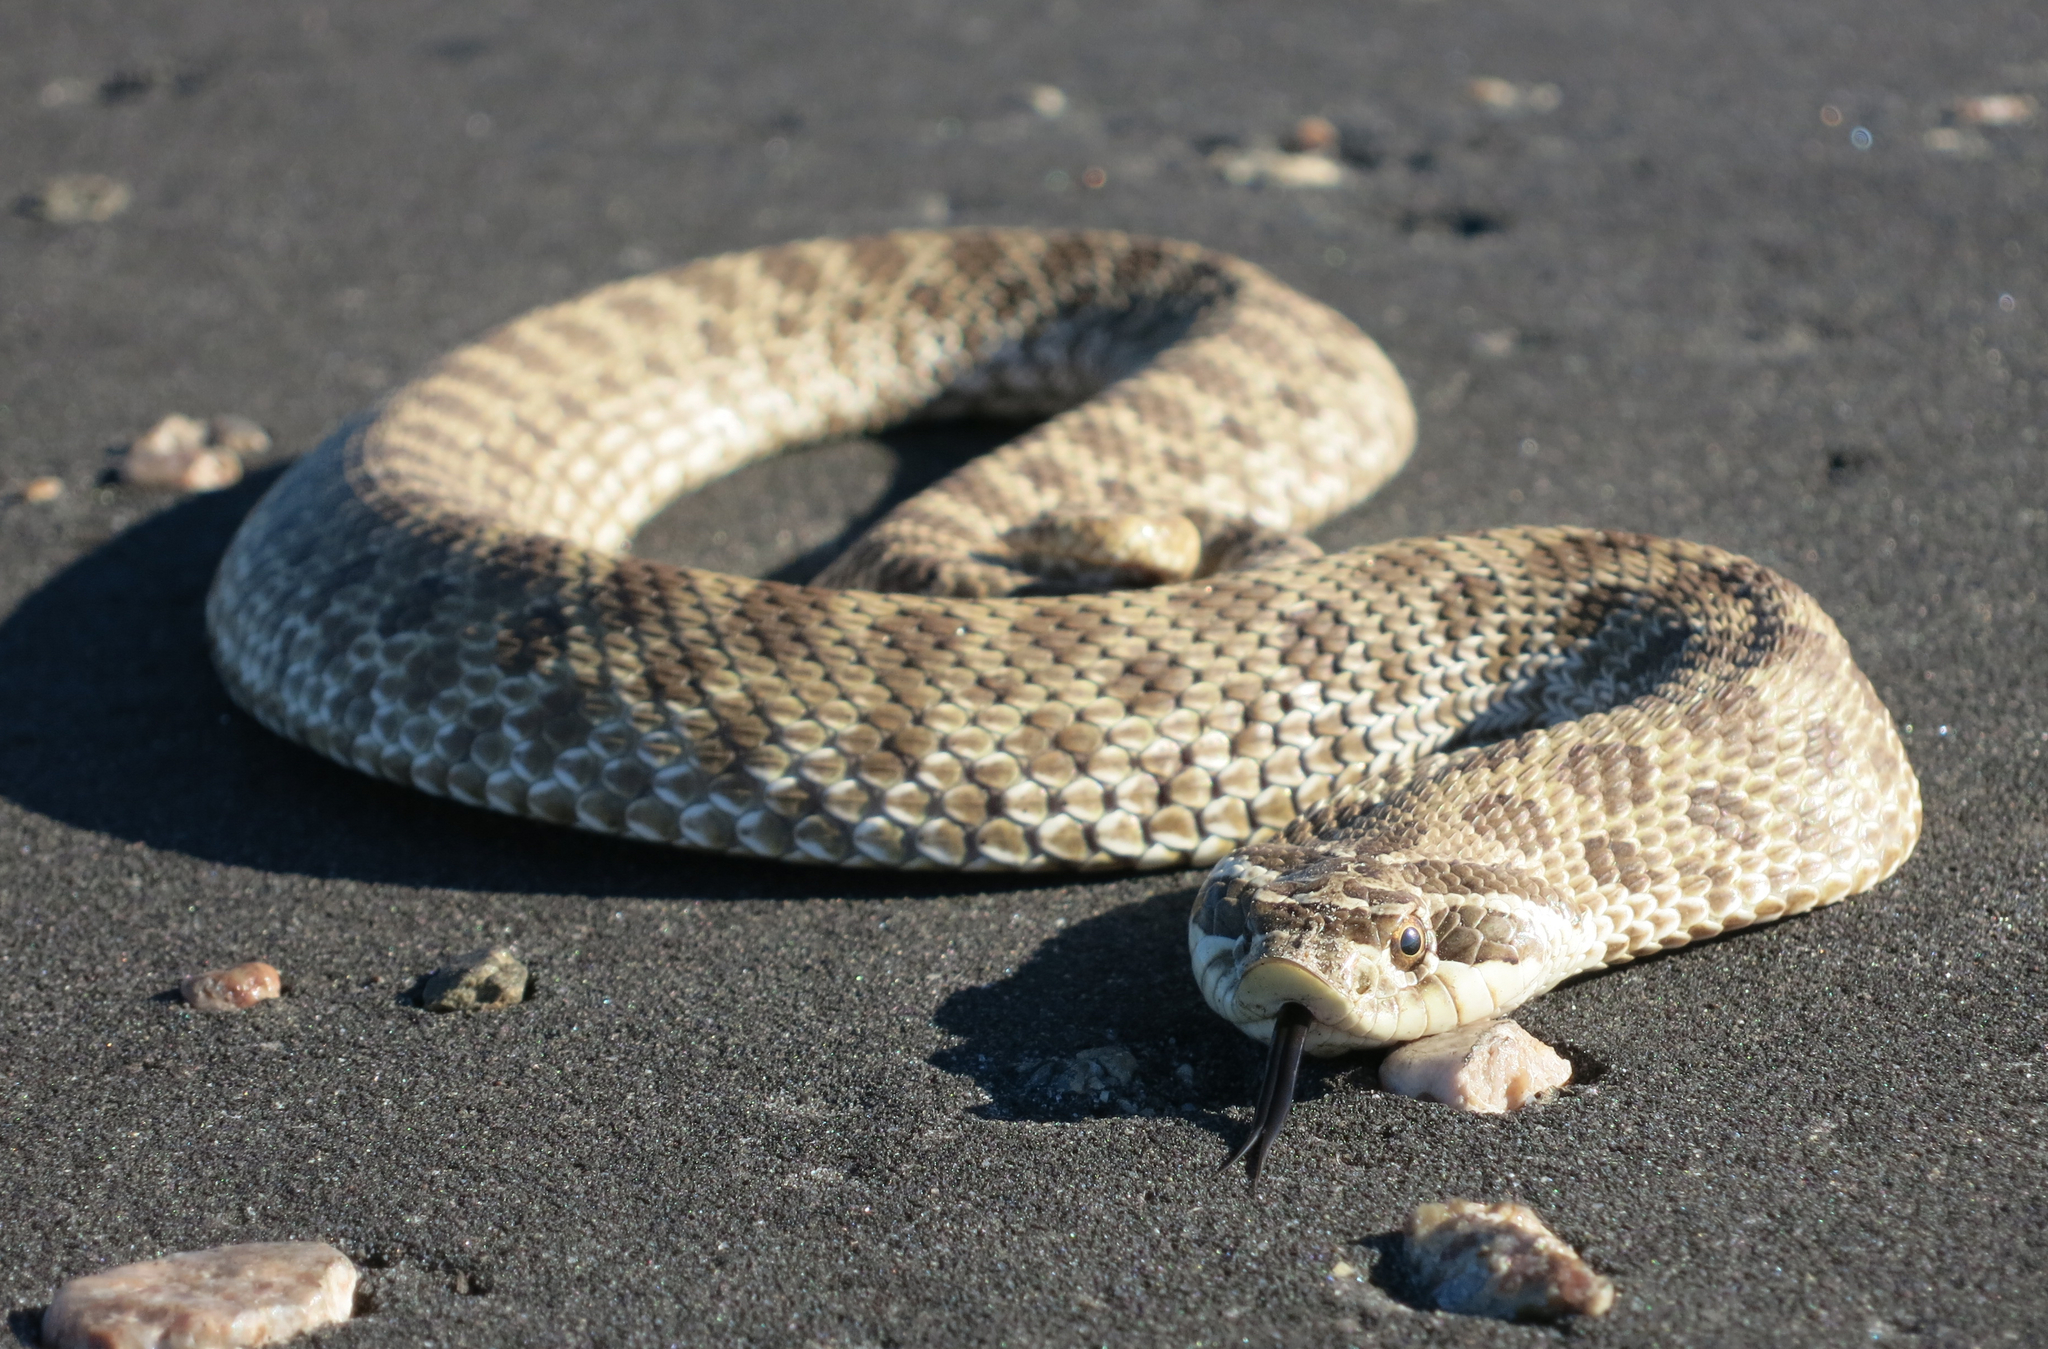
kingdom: Animalia
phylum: Chordata
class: Squamata
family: Colubridae
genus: Heterodon
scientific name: Heterodon nasicus
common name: Western hognose snake
